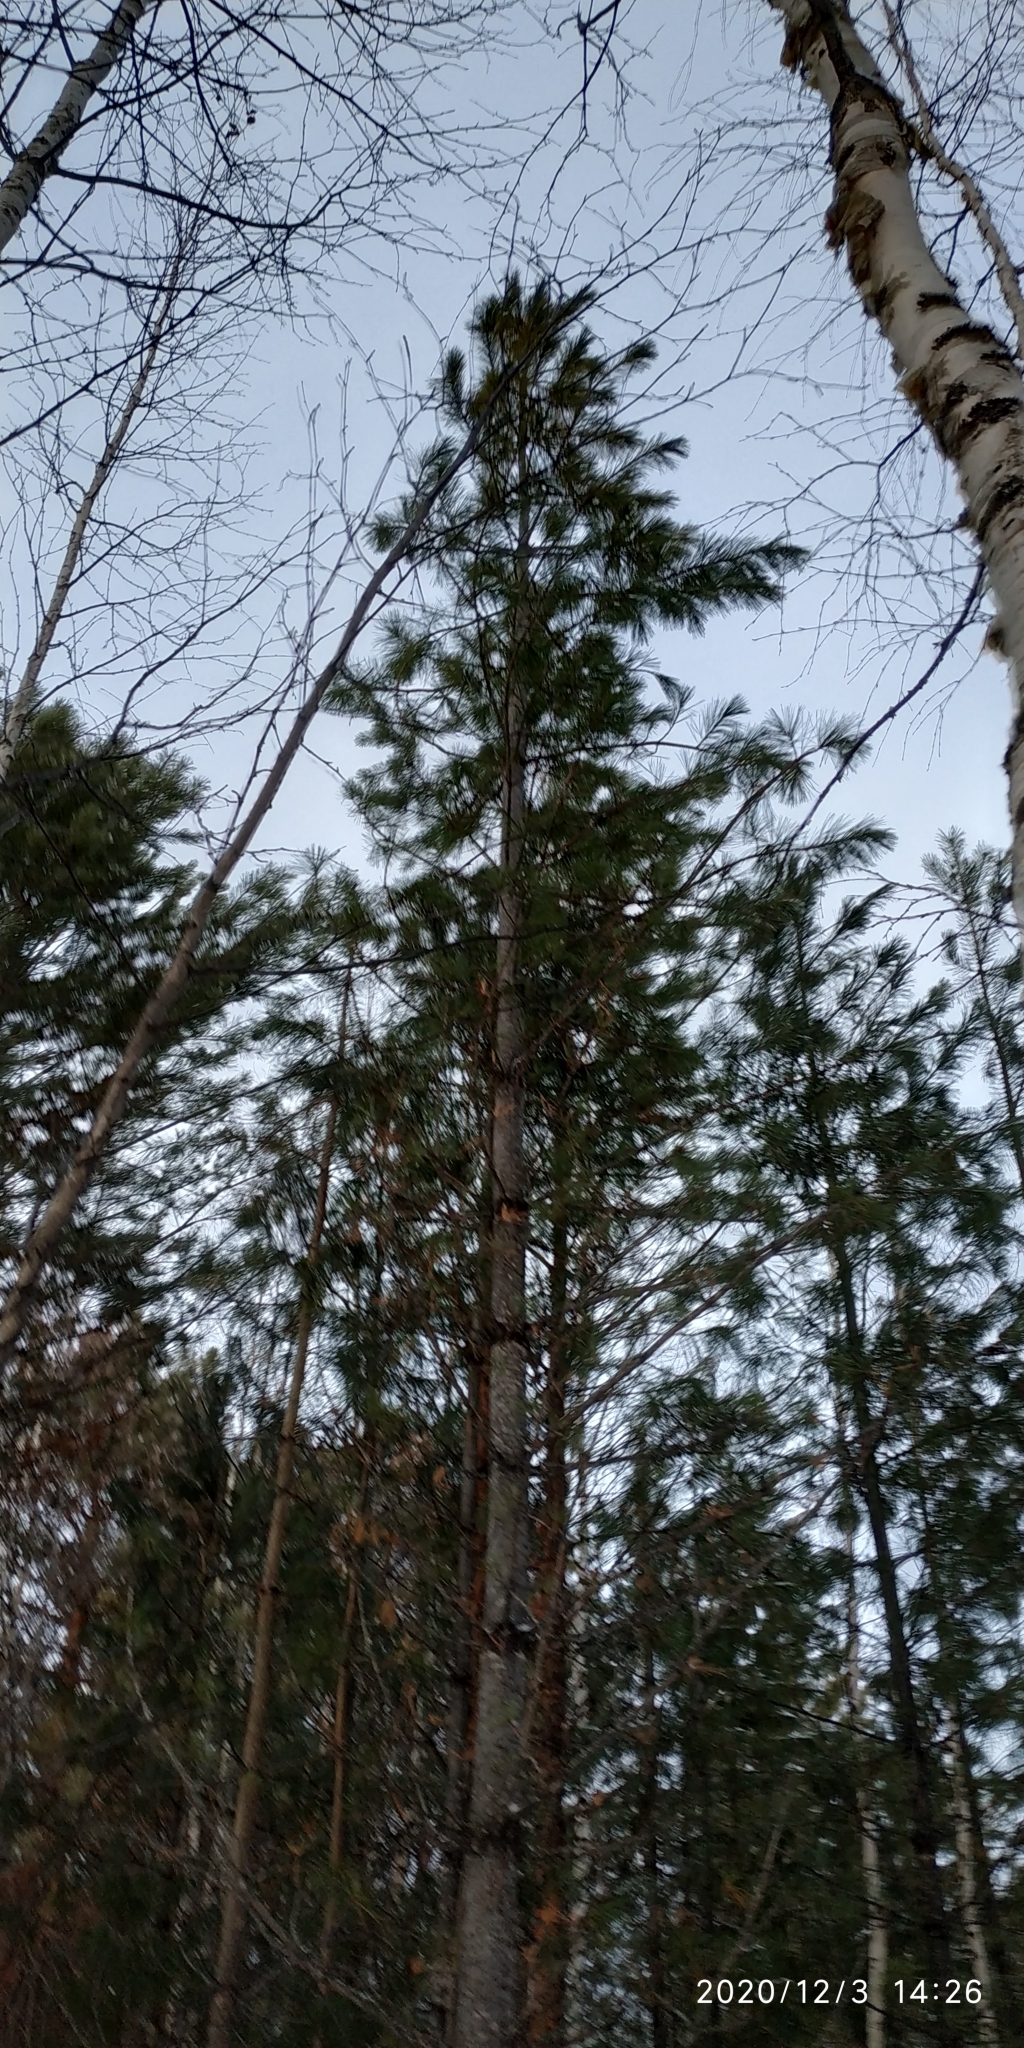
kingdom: Plantae
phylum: Tracheophyta
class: Pinopsida
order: Pinales
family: Pinaceae
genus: Pinus
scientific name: Pinus sibirica
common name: Siberian pine
